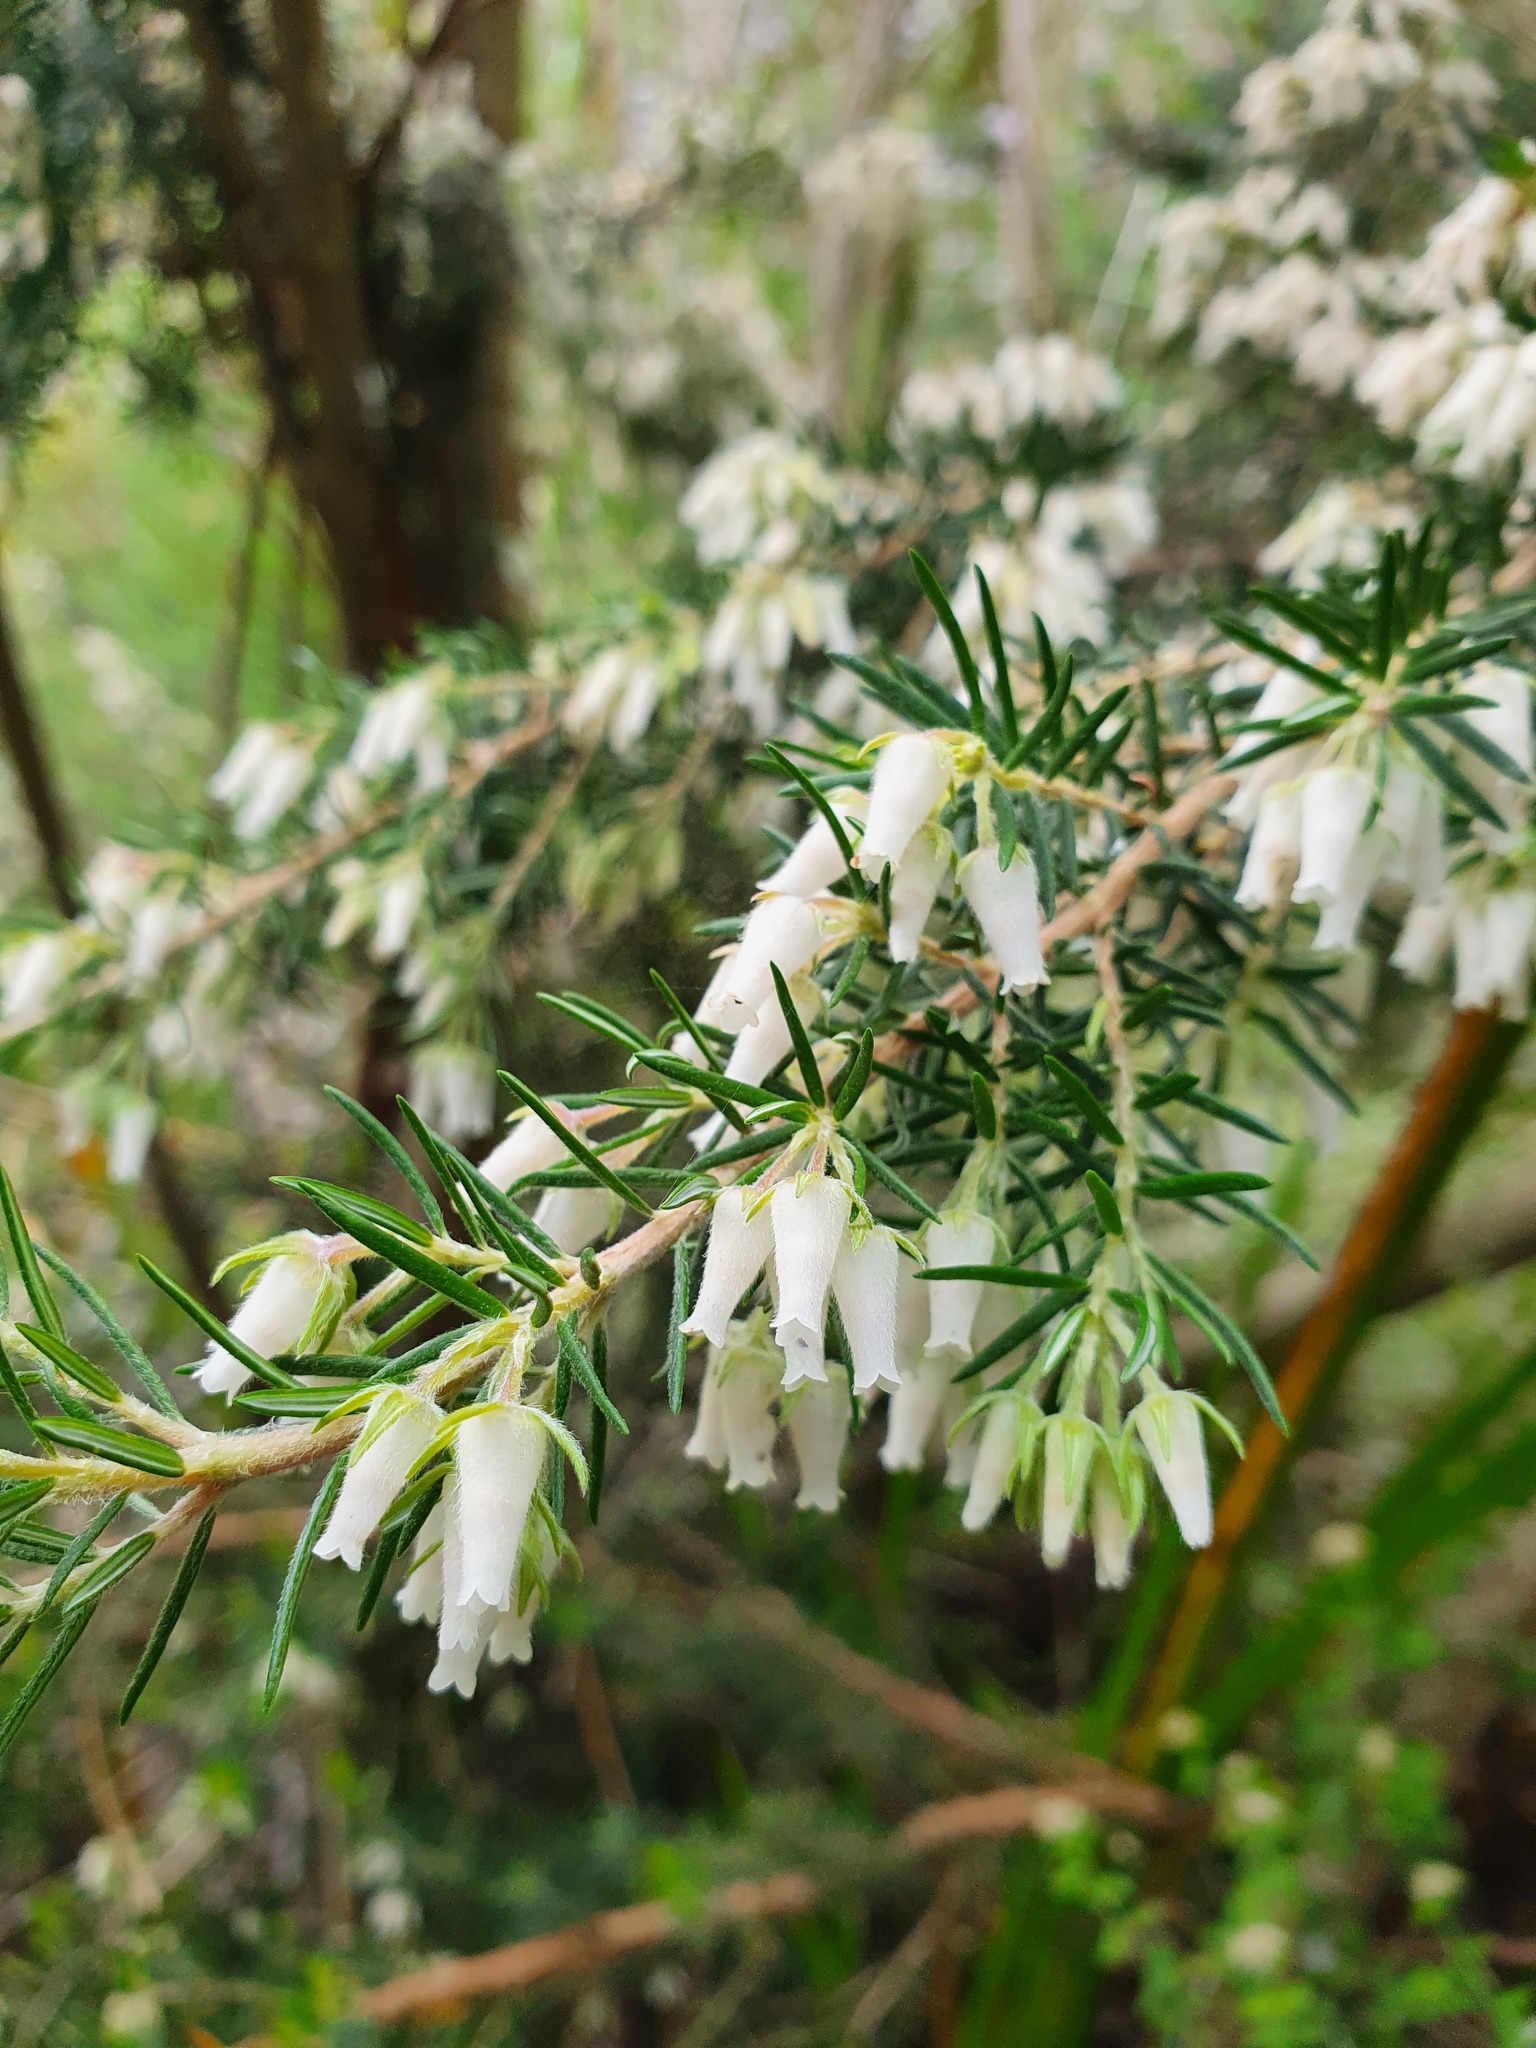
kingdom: Plantae
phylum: Tracheophyta
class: Magnoliopsida
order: Ericales
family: Ericaceae
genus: Erica
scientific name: Erica caffra
